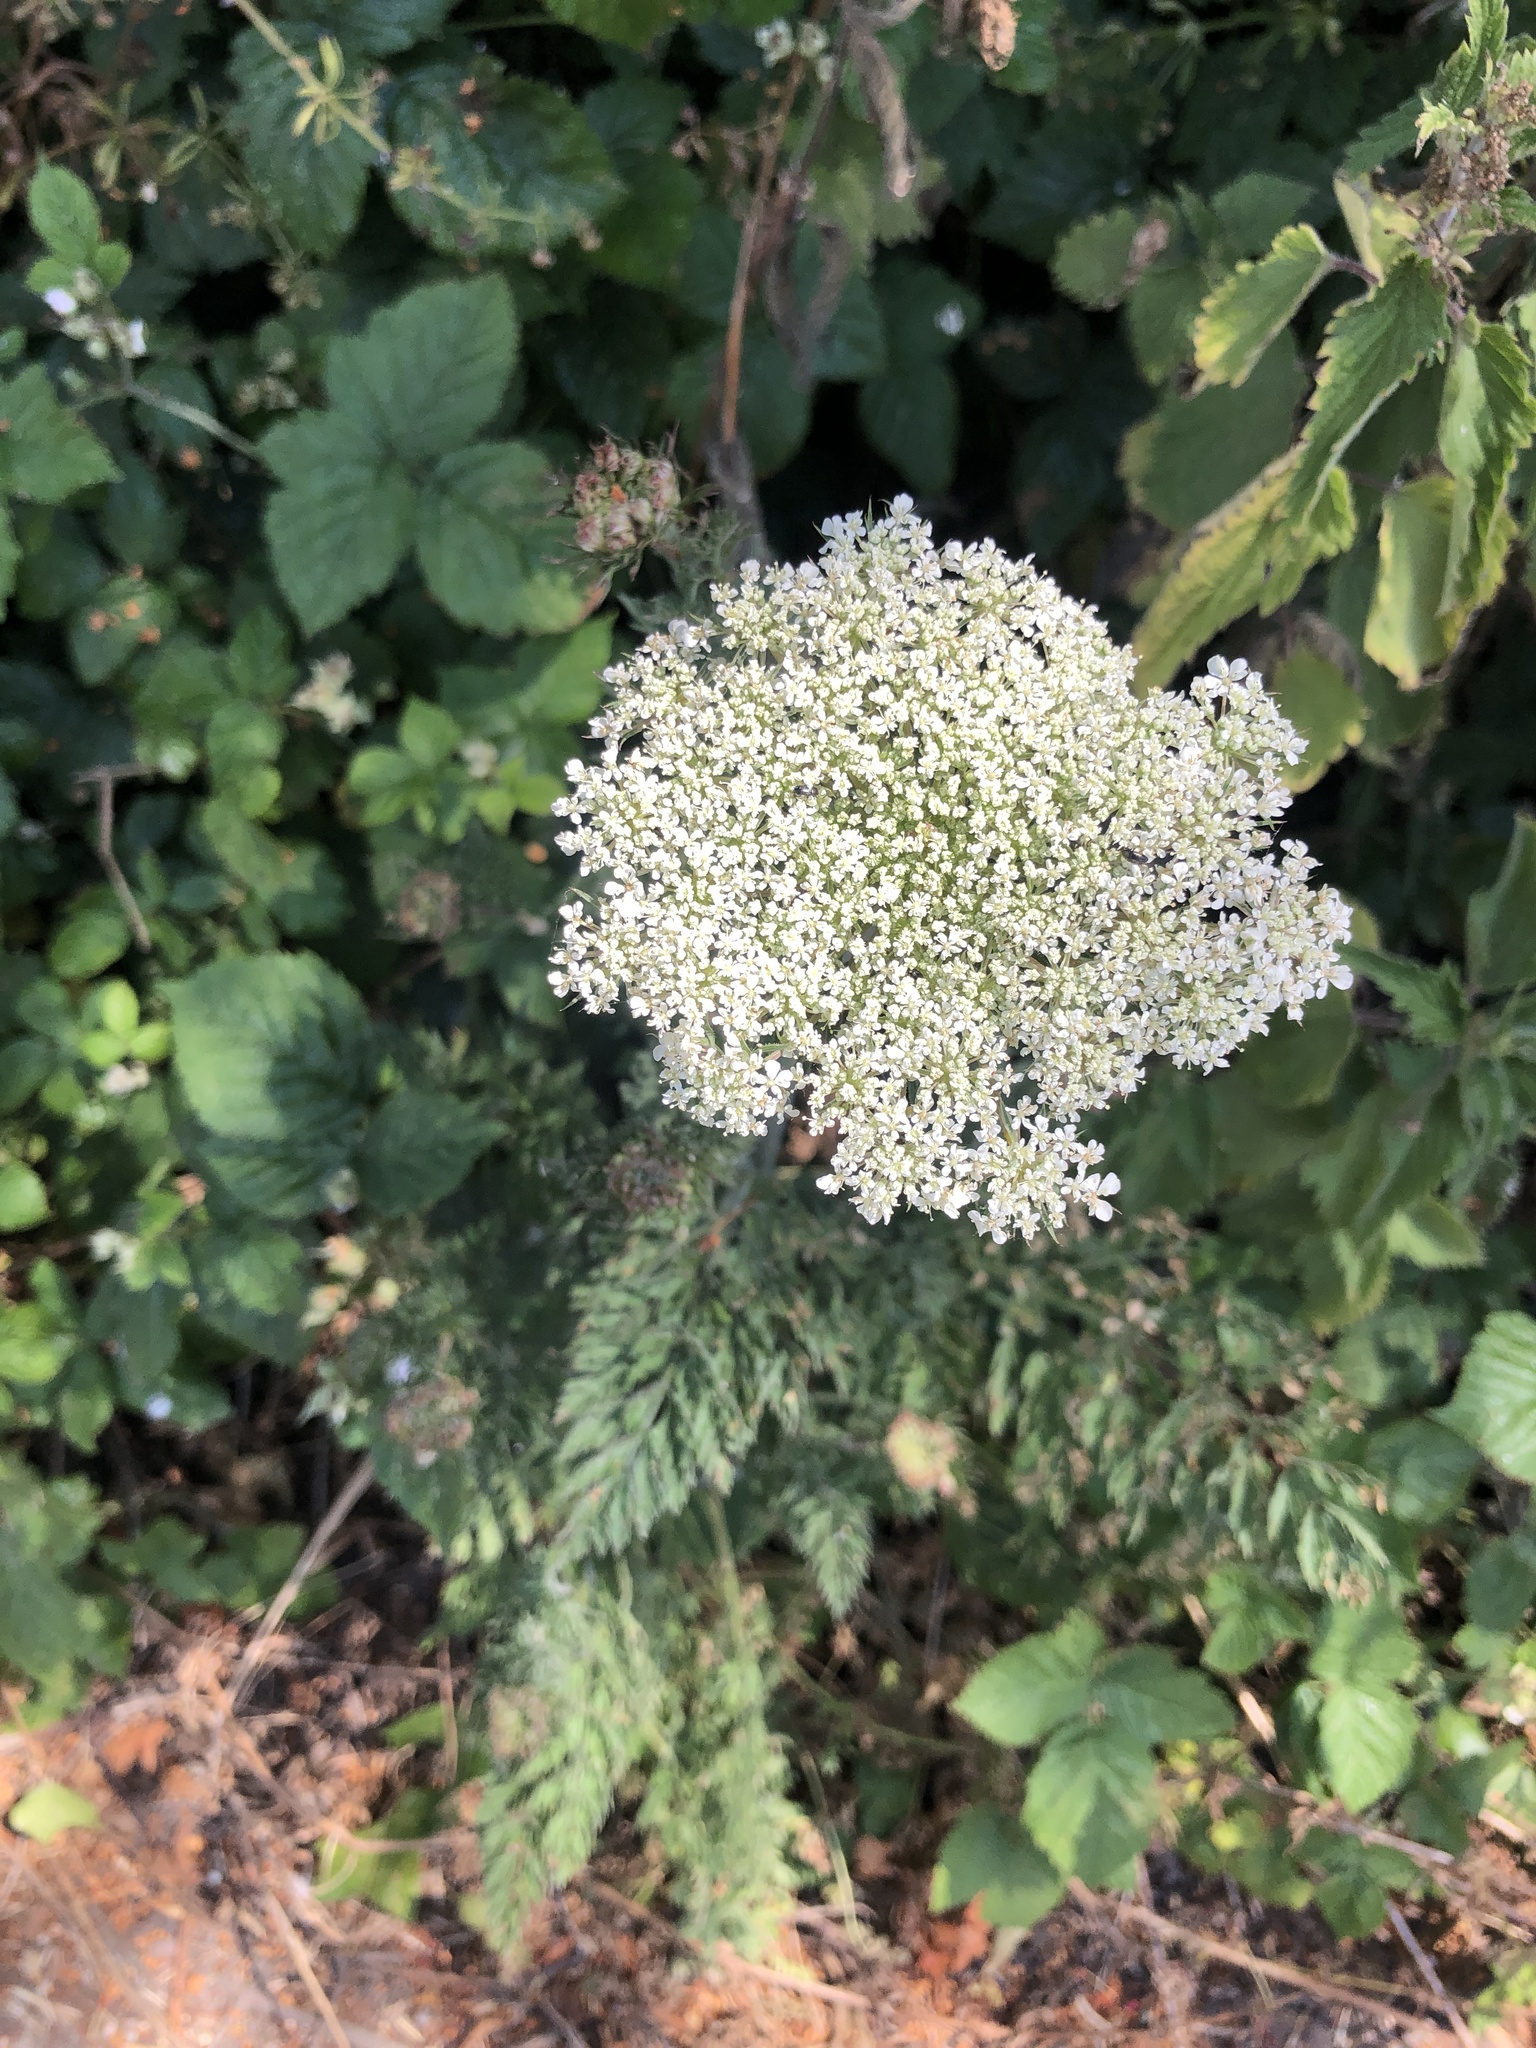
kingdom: Plantae
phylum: Tracheophyta
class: Magnoliopsida
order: Apiales
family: Apiaceae
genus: Daucus
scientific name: Daucus carota
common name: Wild carrot
